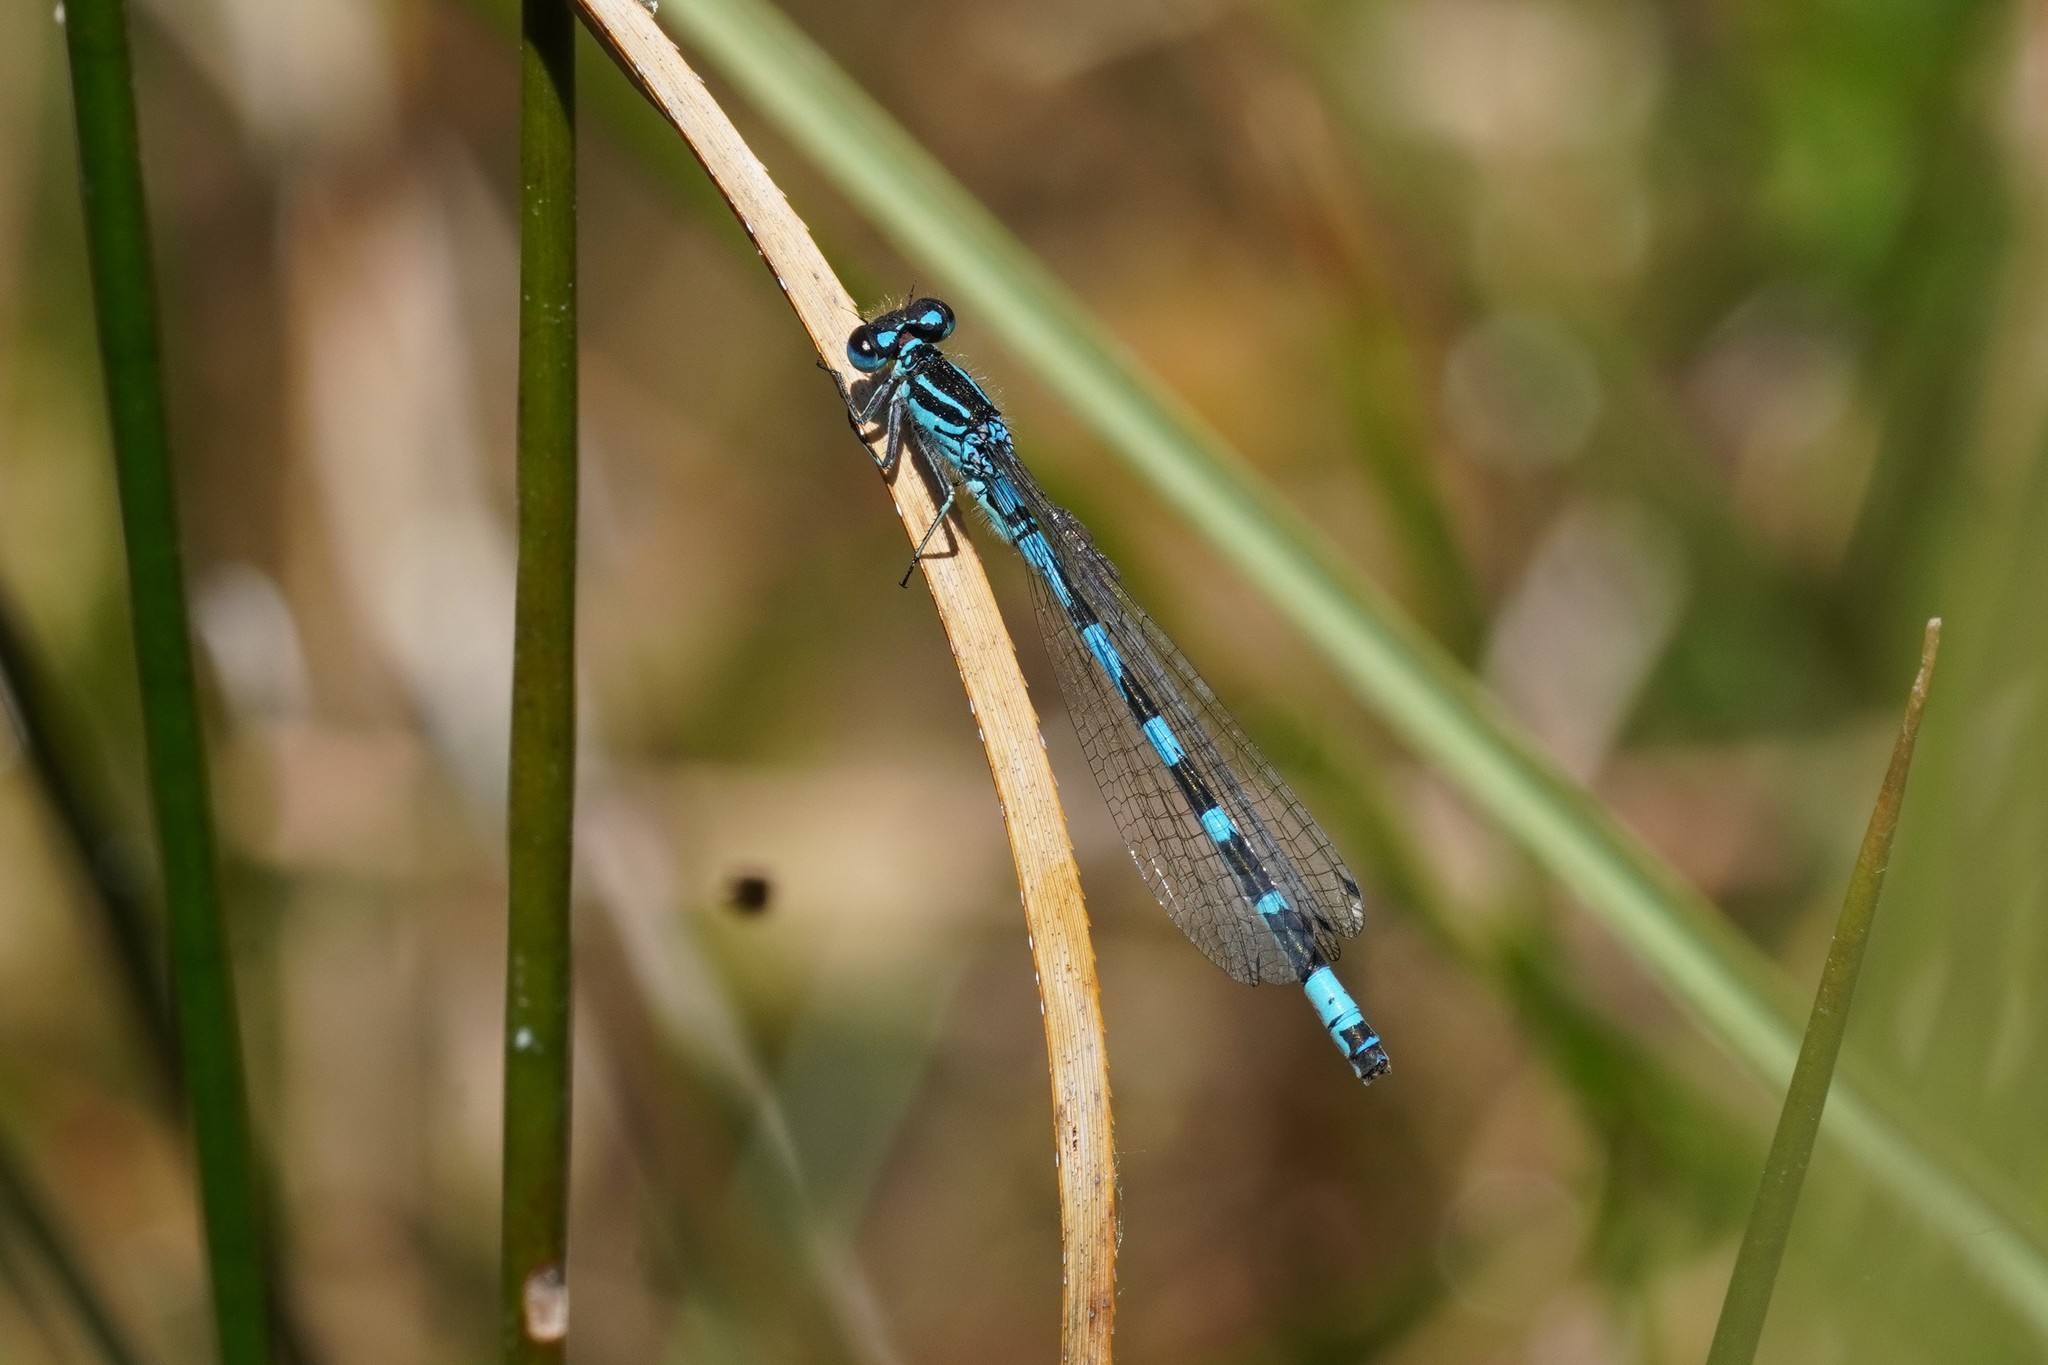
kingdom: Animalia
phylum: Arthropoda
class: Insecta
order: Odonata
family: Coenagrionidae
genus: Coenagrion
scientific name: Coenagrion ornatum
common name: Ornate bluet
